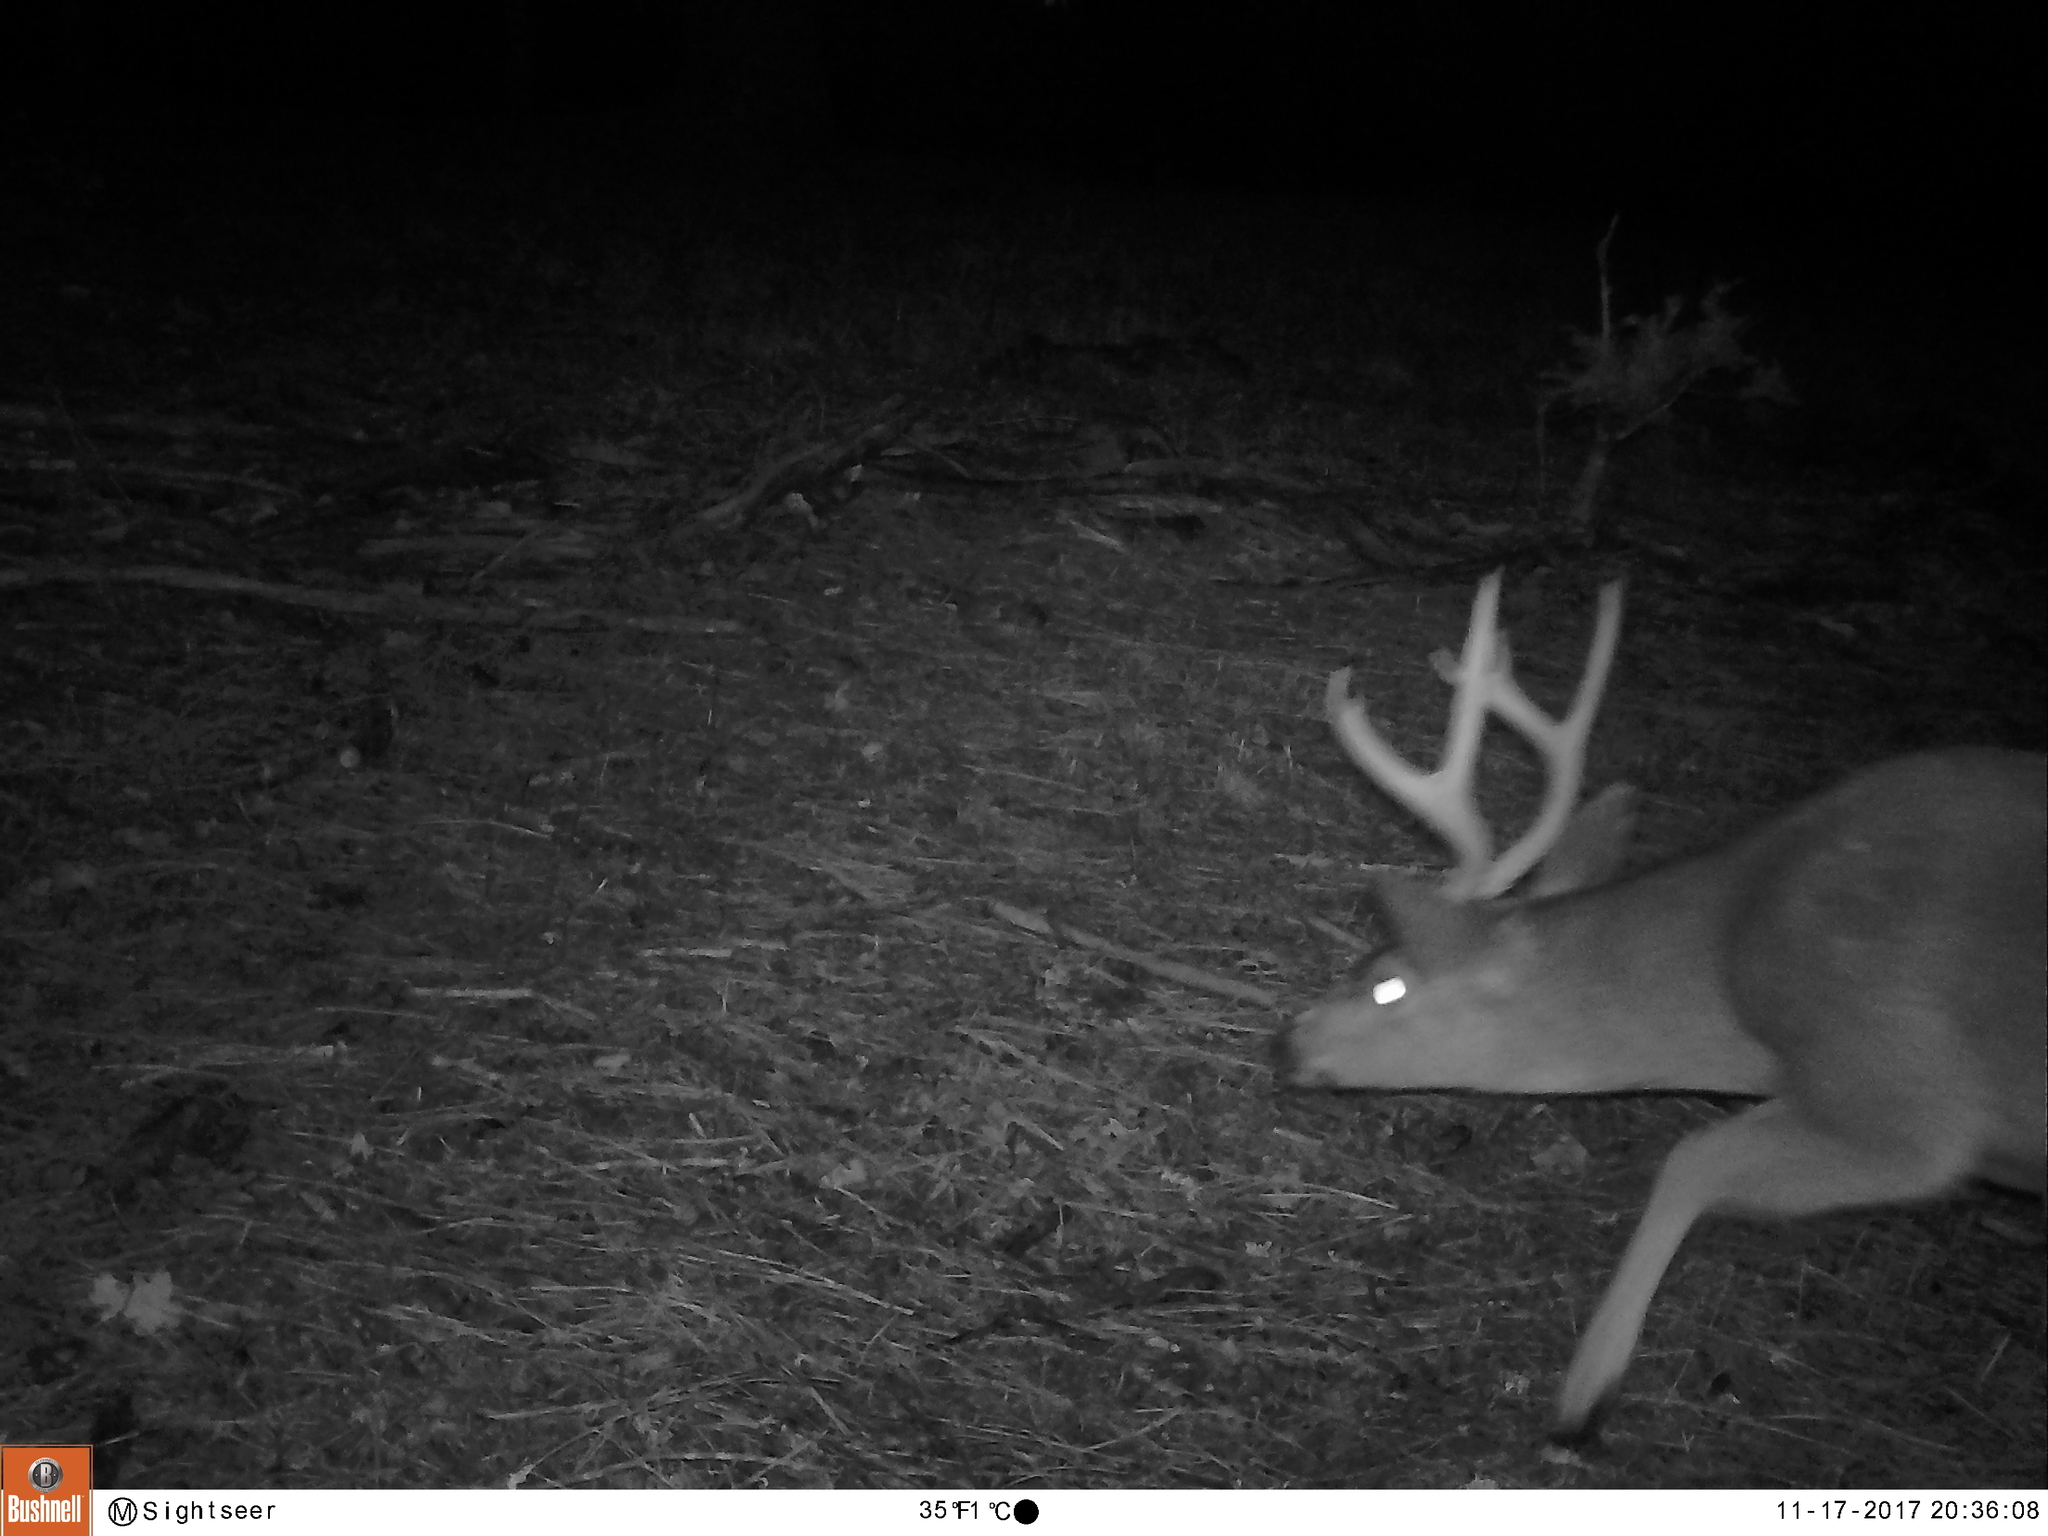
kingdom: Animalia
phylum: Chordata
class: Mammalia
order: Artiodactyla
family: Cervidae
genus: Odocoileus
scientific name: Odocoileus hemionus
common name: Mule deer
